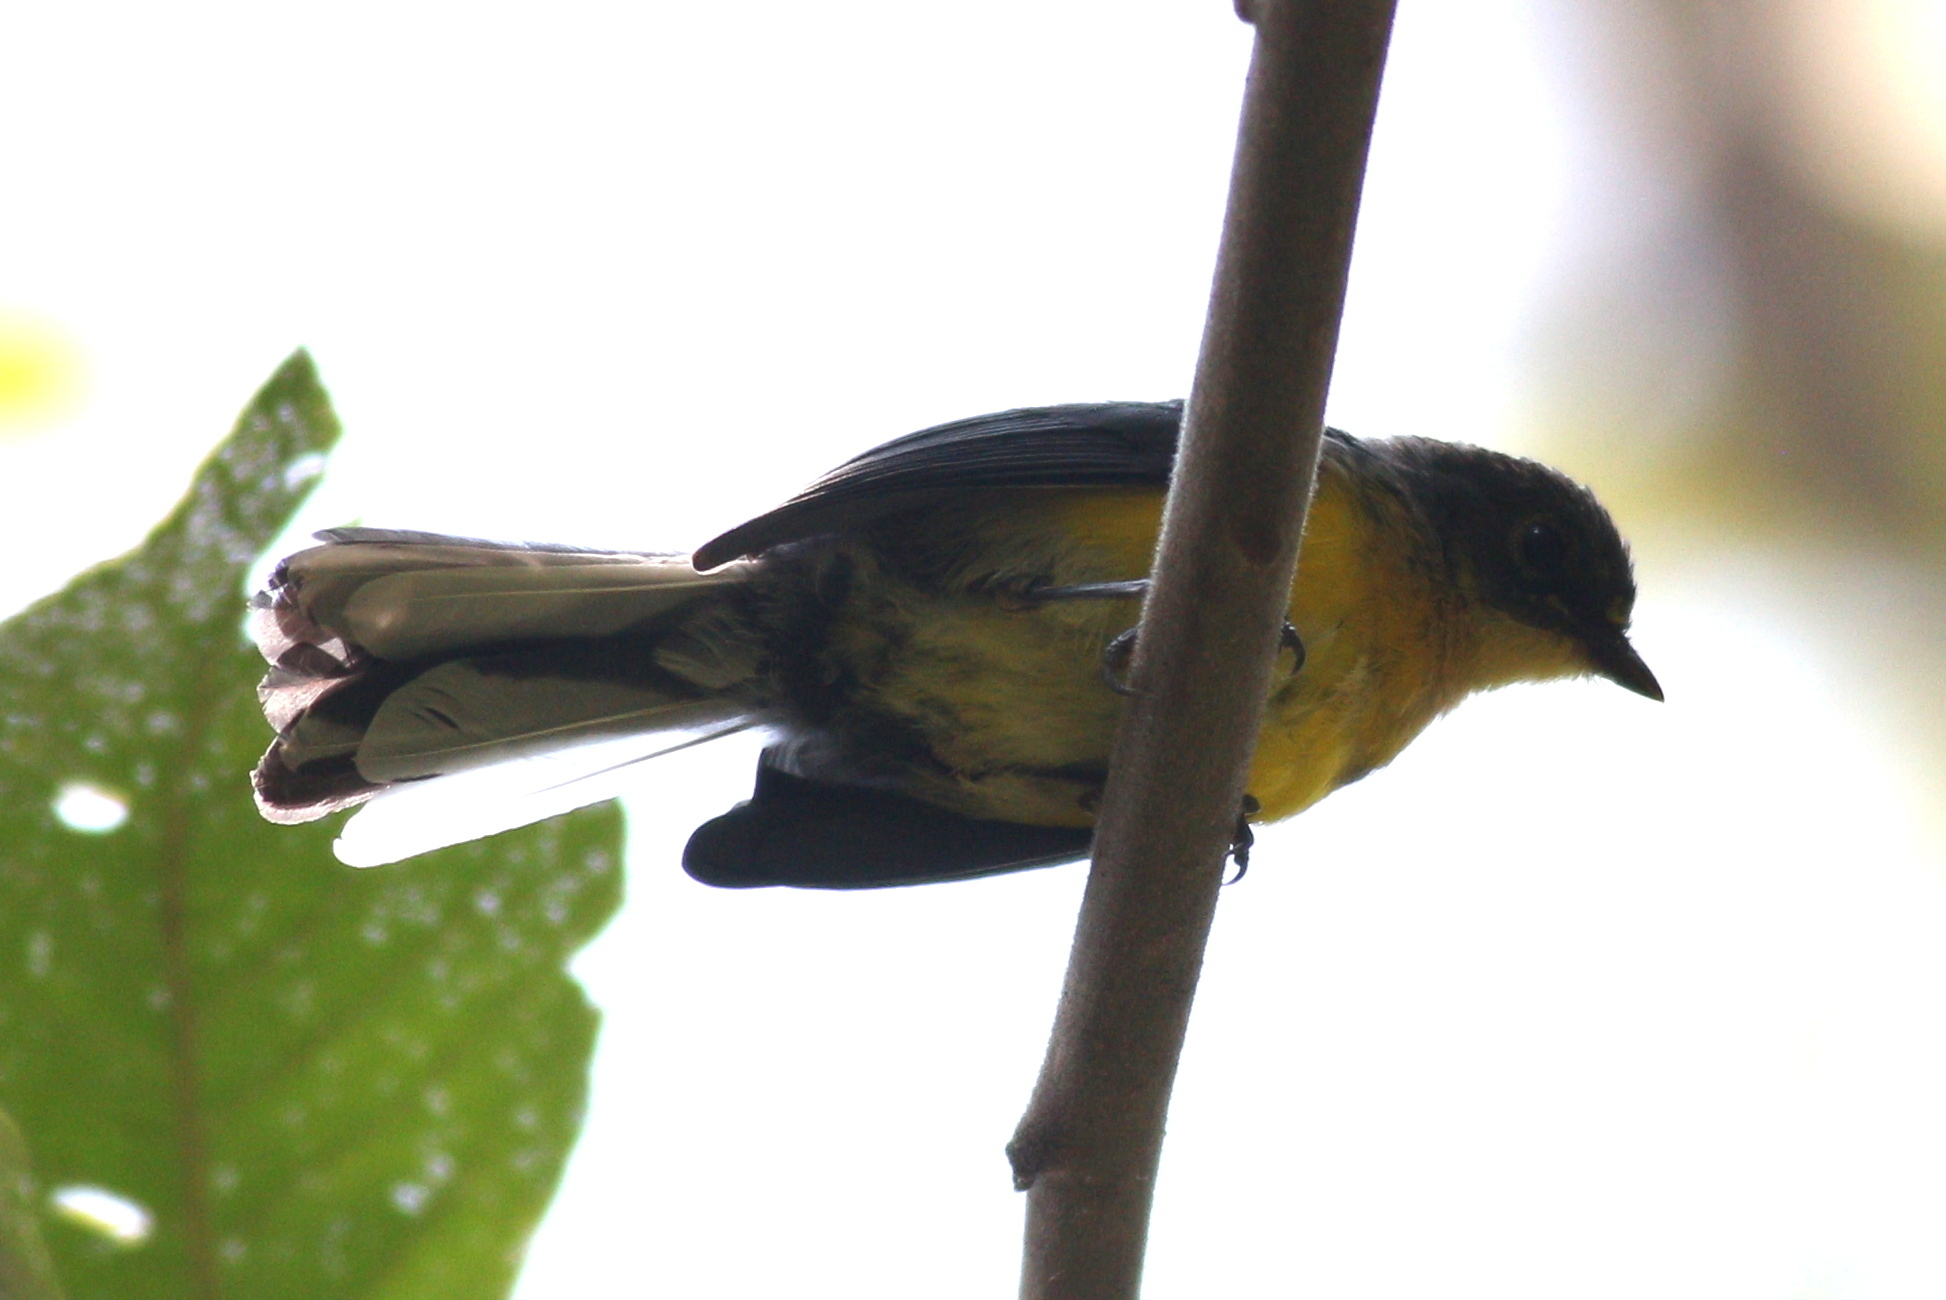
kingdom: Animalia
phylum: Chordata
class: Aves
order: Passeriformes
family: Parulidae
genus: Myioborus
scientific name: Myioborus melanocephalus
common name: Spectacled whitestart
